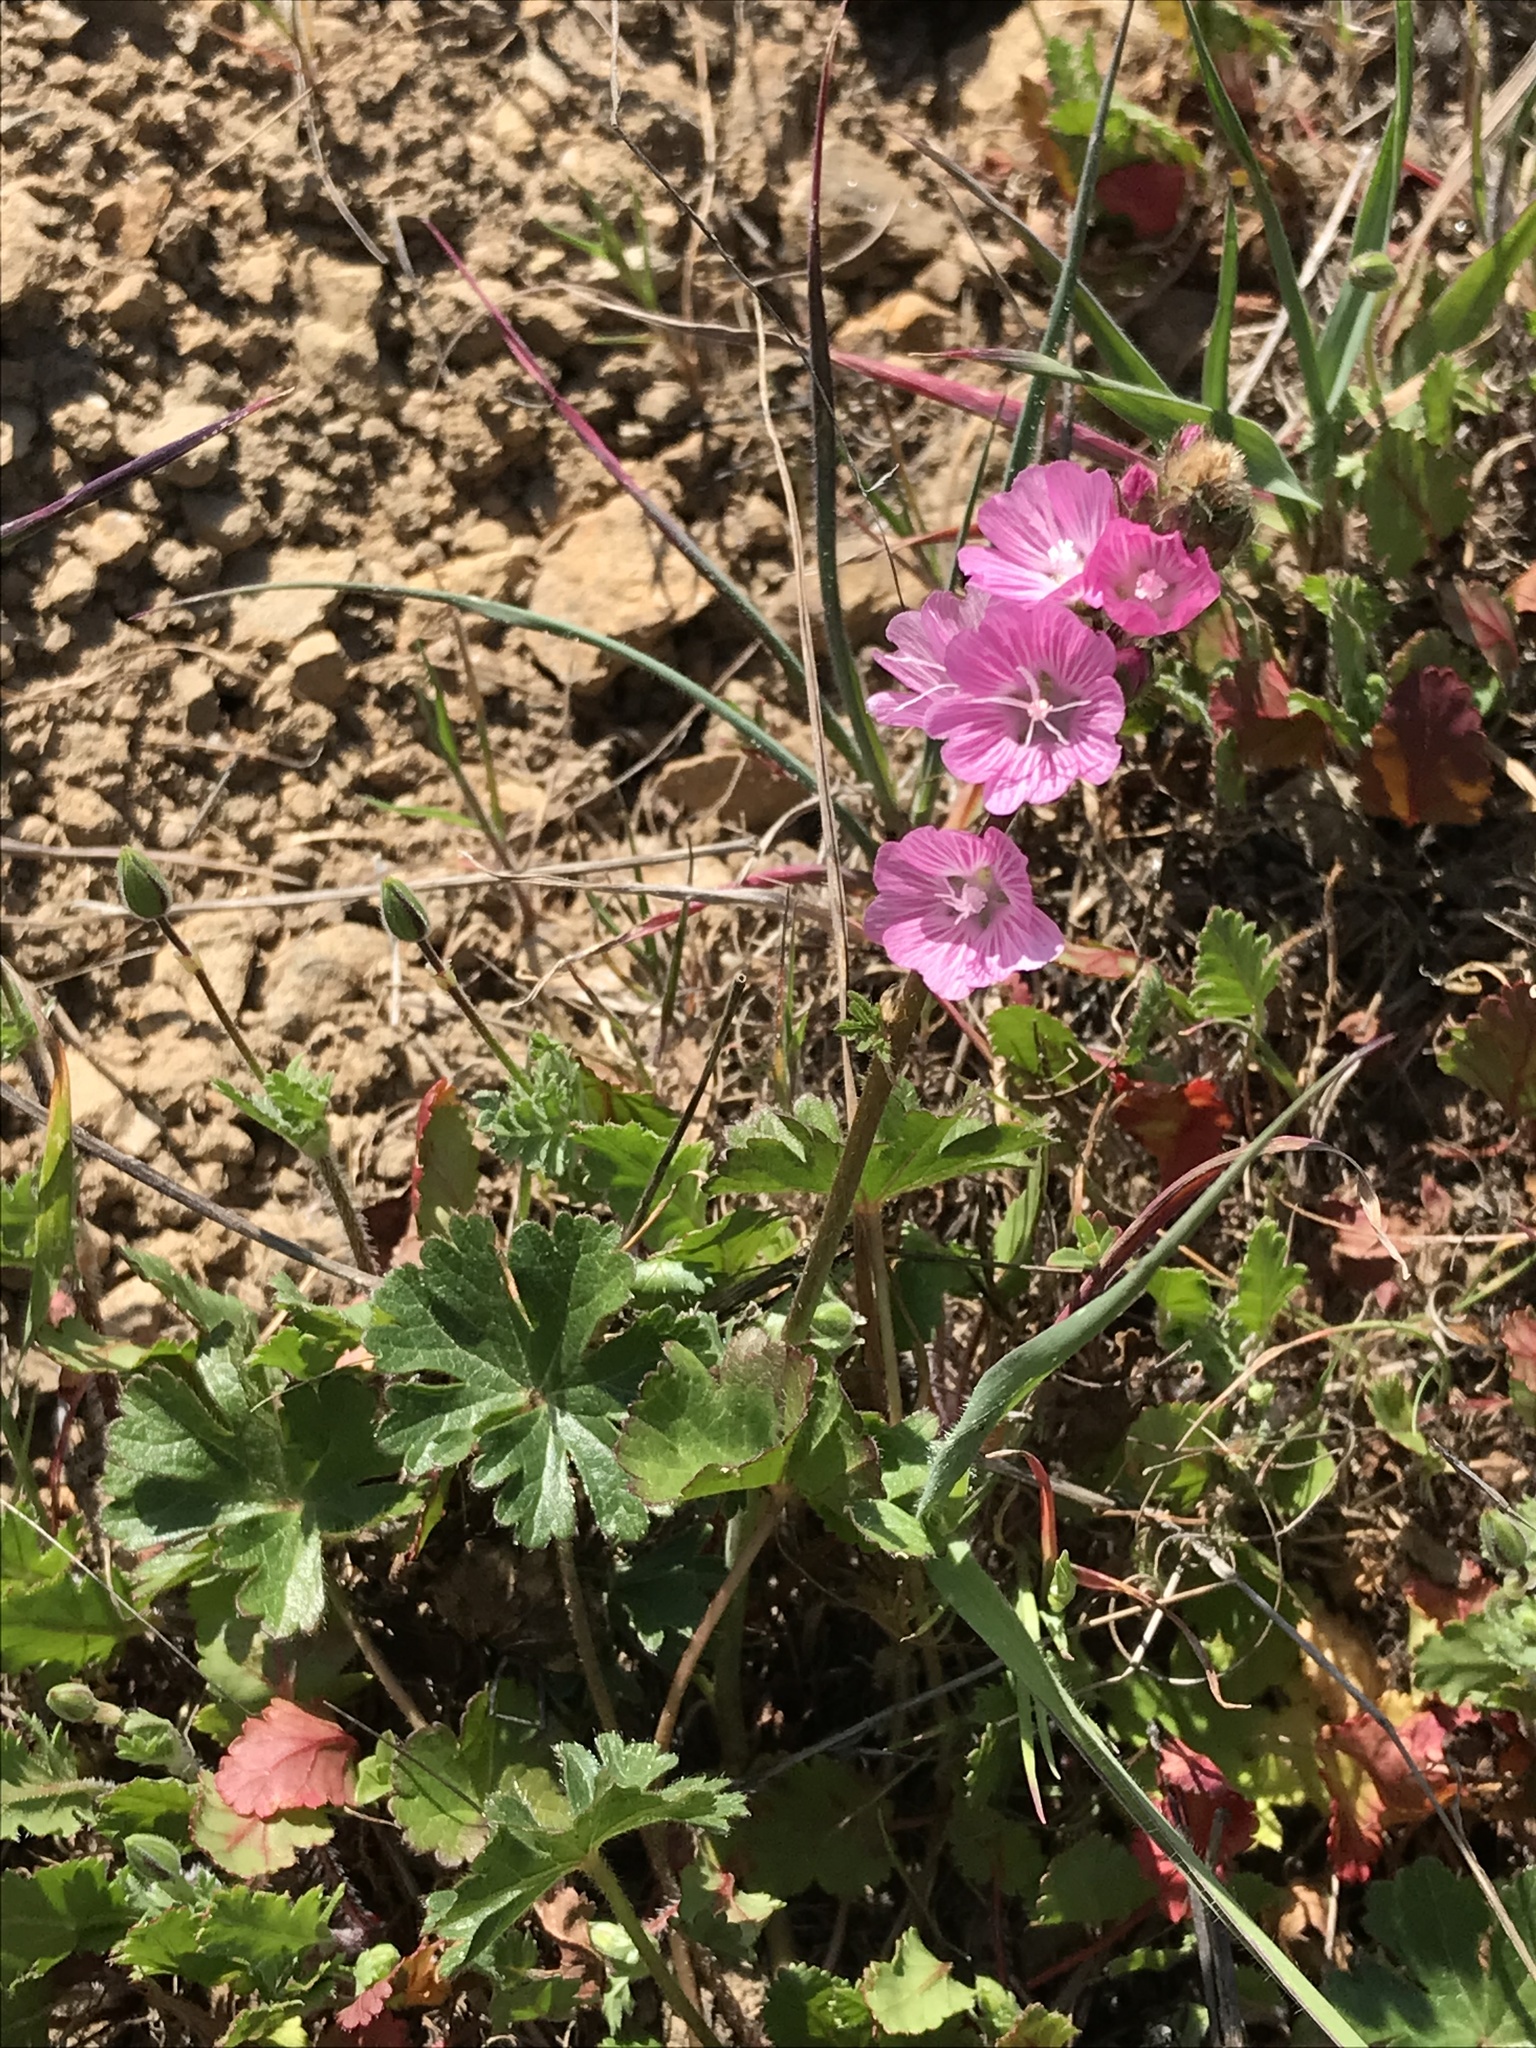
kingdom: Plantae
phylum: Tracheophyta
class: Magnoliopsida
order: Malvales
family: Malvaceae
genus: Sidalcea
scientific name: Sidalcea malviflora
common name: Greek mallow
